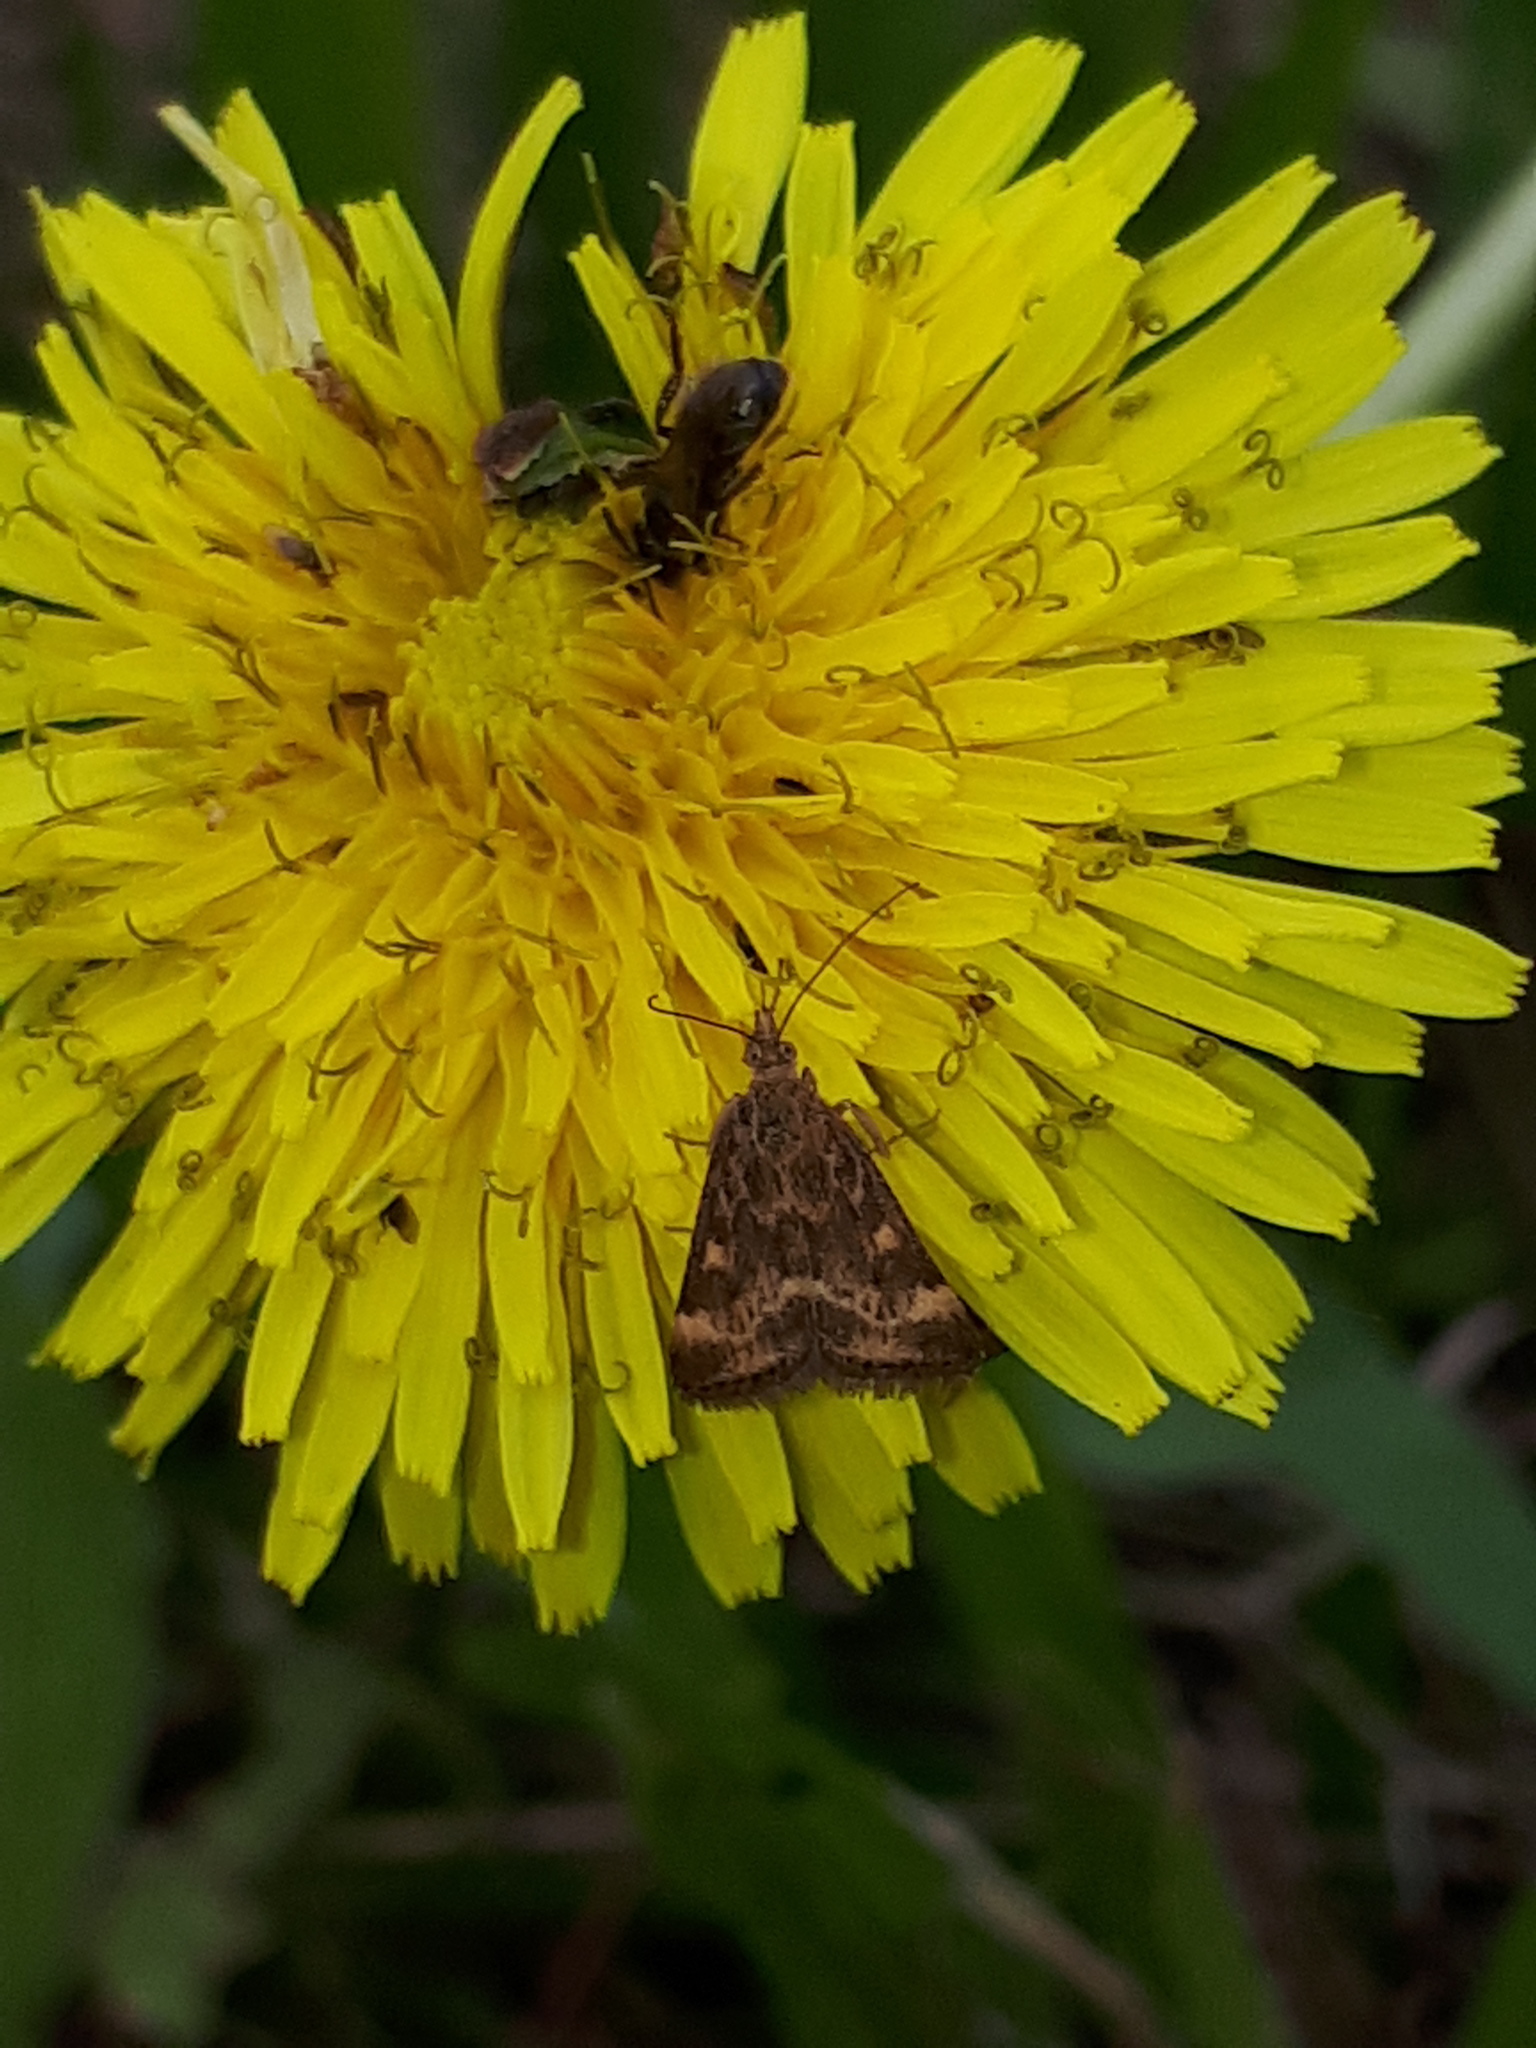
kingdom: Animalia
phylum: Arthropoda
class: Insecta
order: Lepidoptera
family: Crambidae
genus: Pyrausta
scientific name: Pyrausta despicata
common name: Straw-barred pearl
